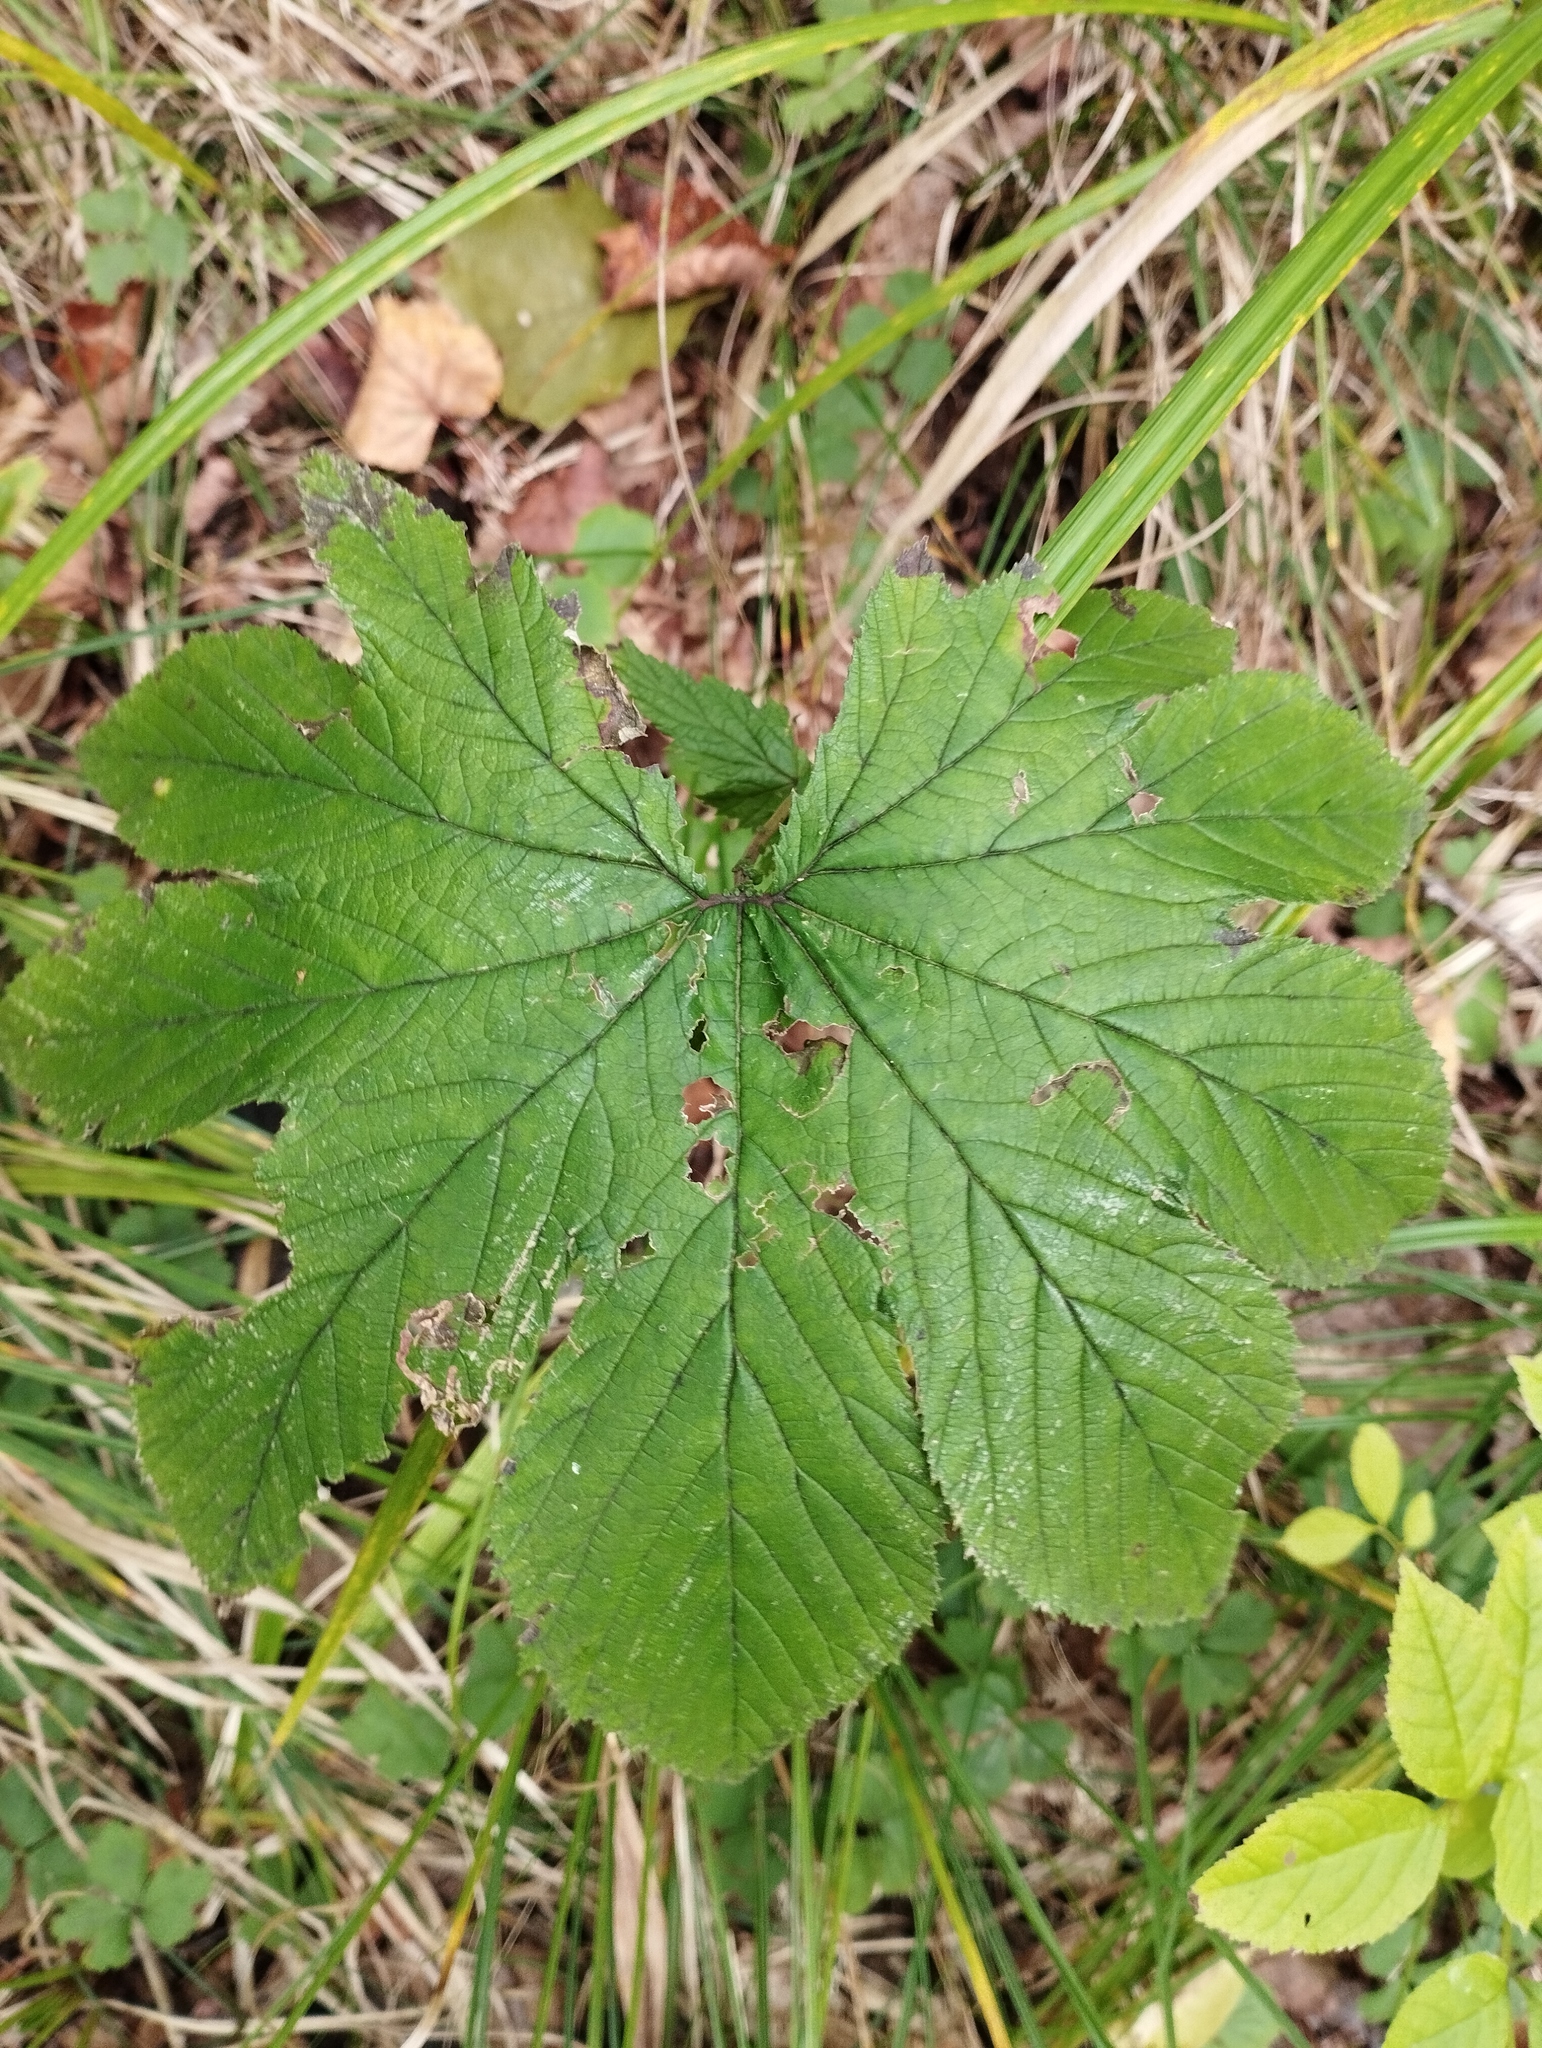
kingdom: Plantae
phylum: Tracheophyta
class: Magnoliopsida
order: Rosales
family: Rosaceae
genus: Filipendula
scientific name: Filipendula digitata
